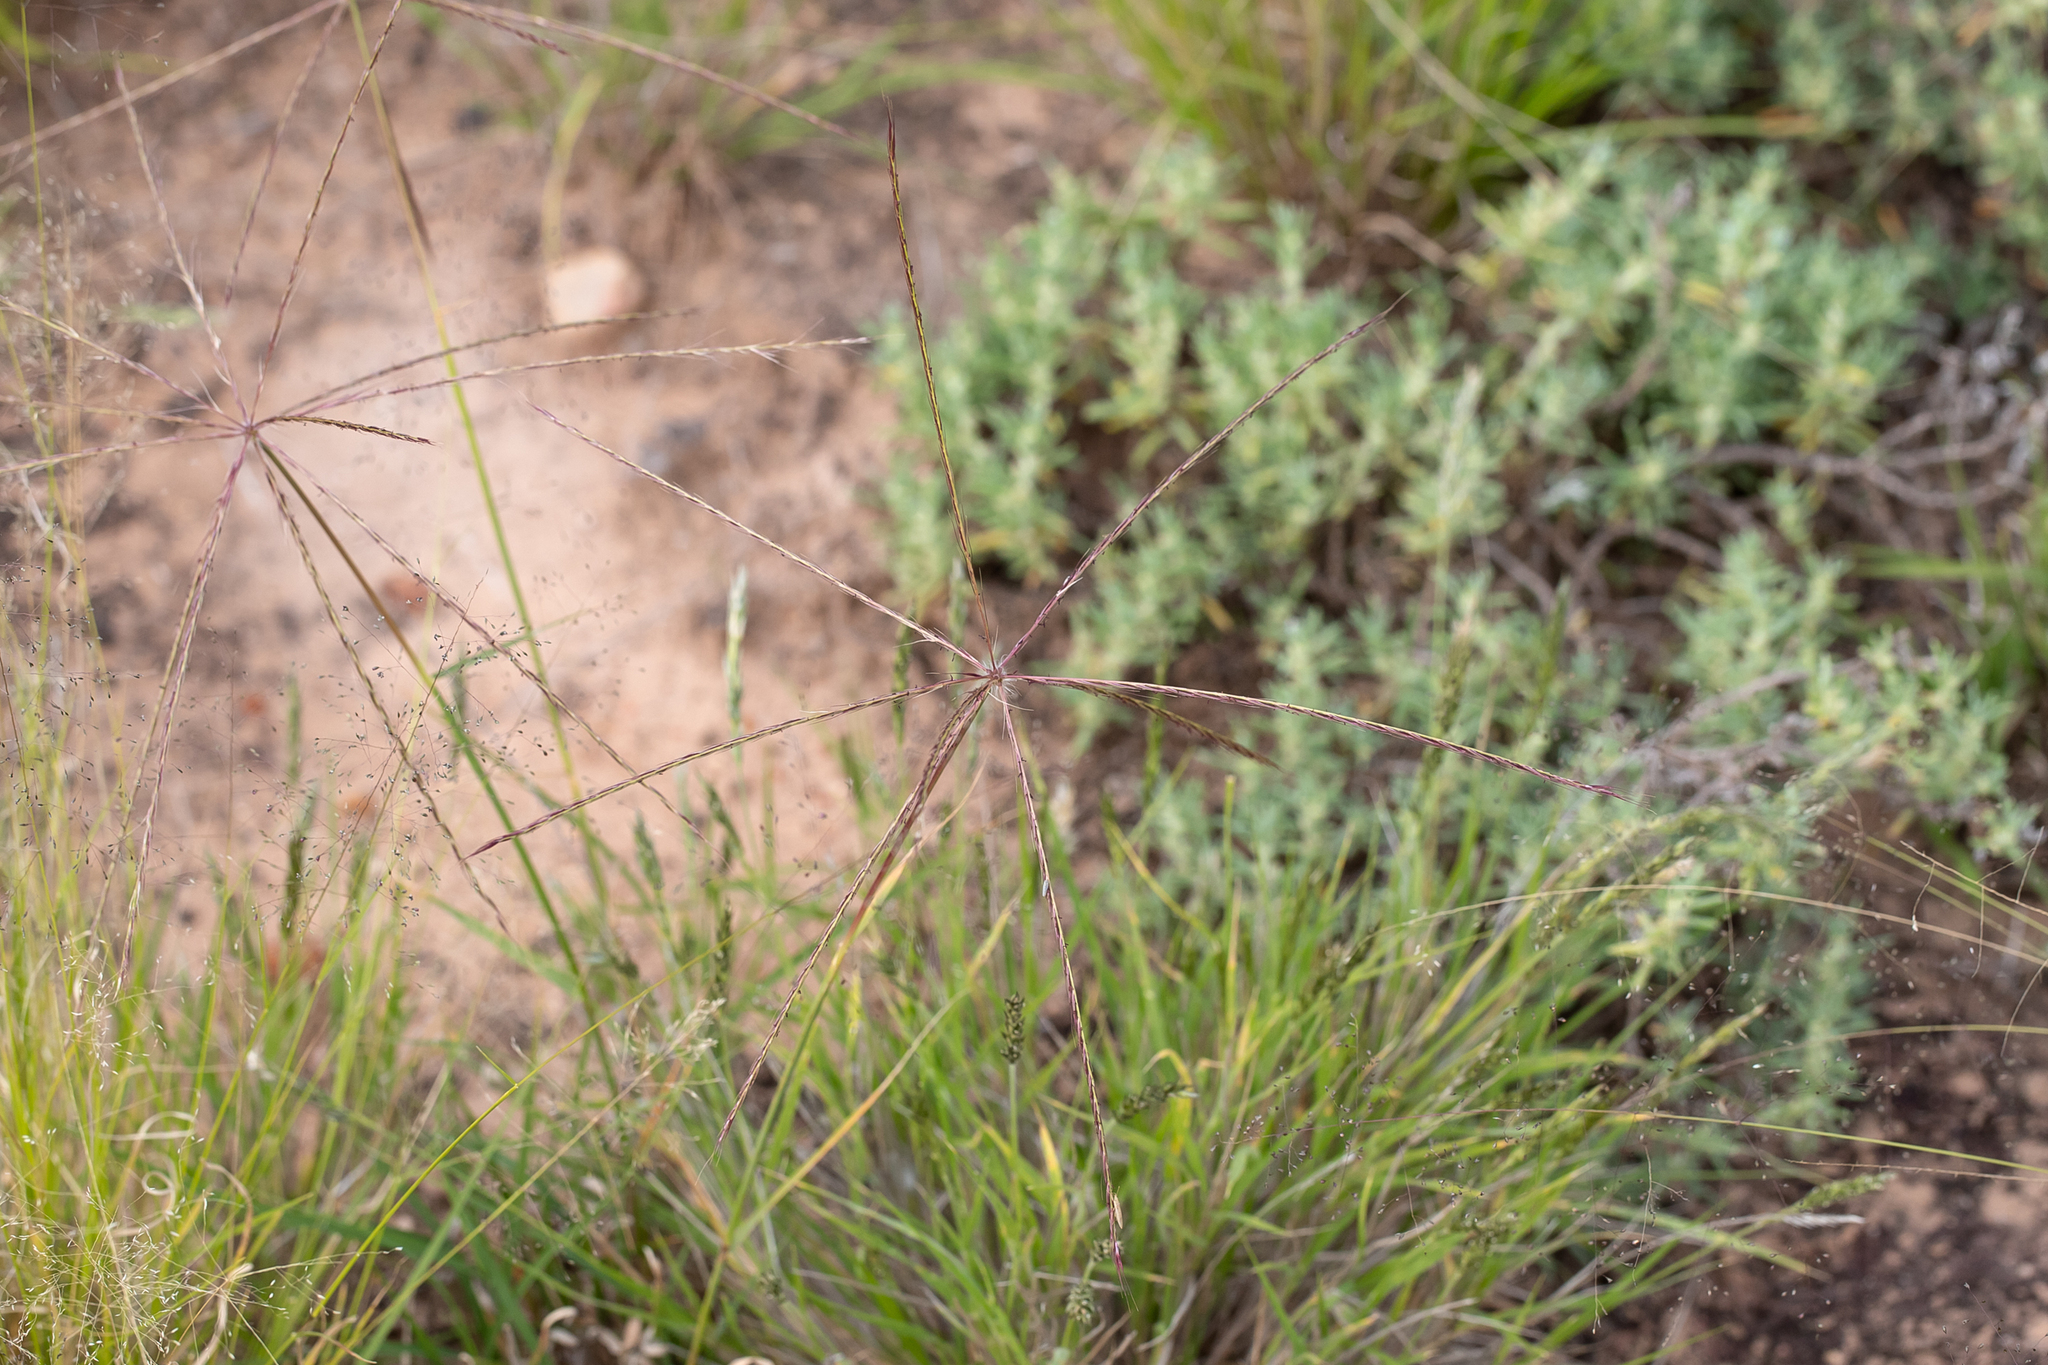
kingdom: Plantae
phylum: Tracheophyta
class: Liliopsida
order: Poales
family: Poaceae
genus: Enteropogon
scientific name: Enteropogon acicularis
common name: Curly windmill grass
